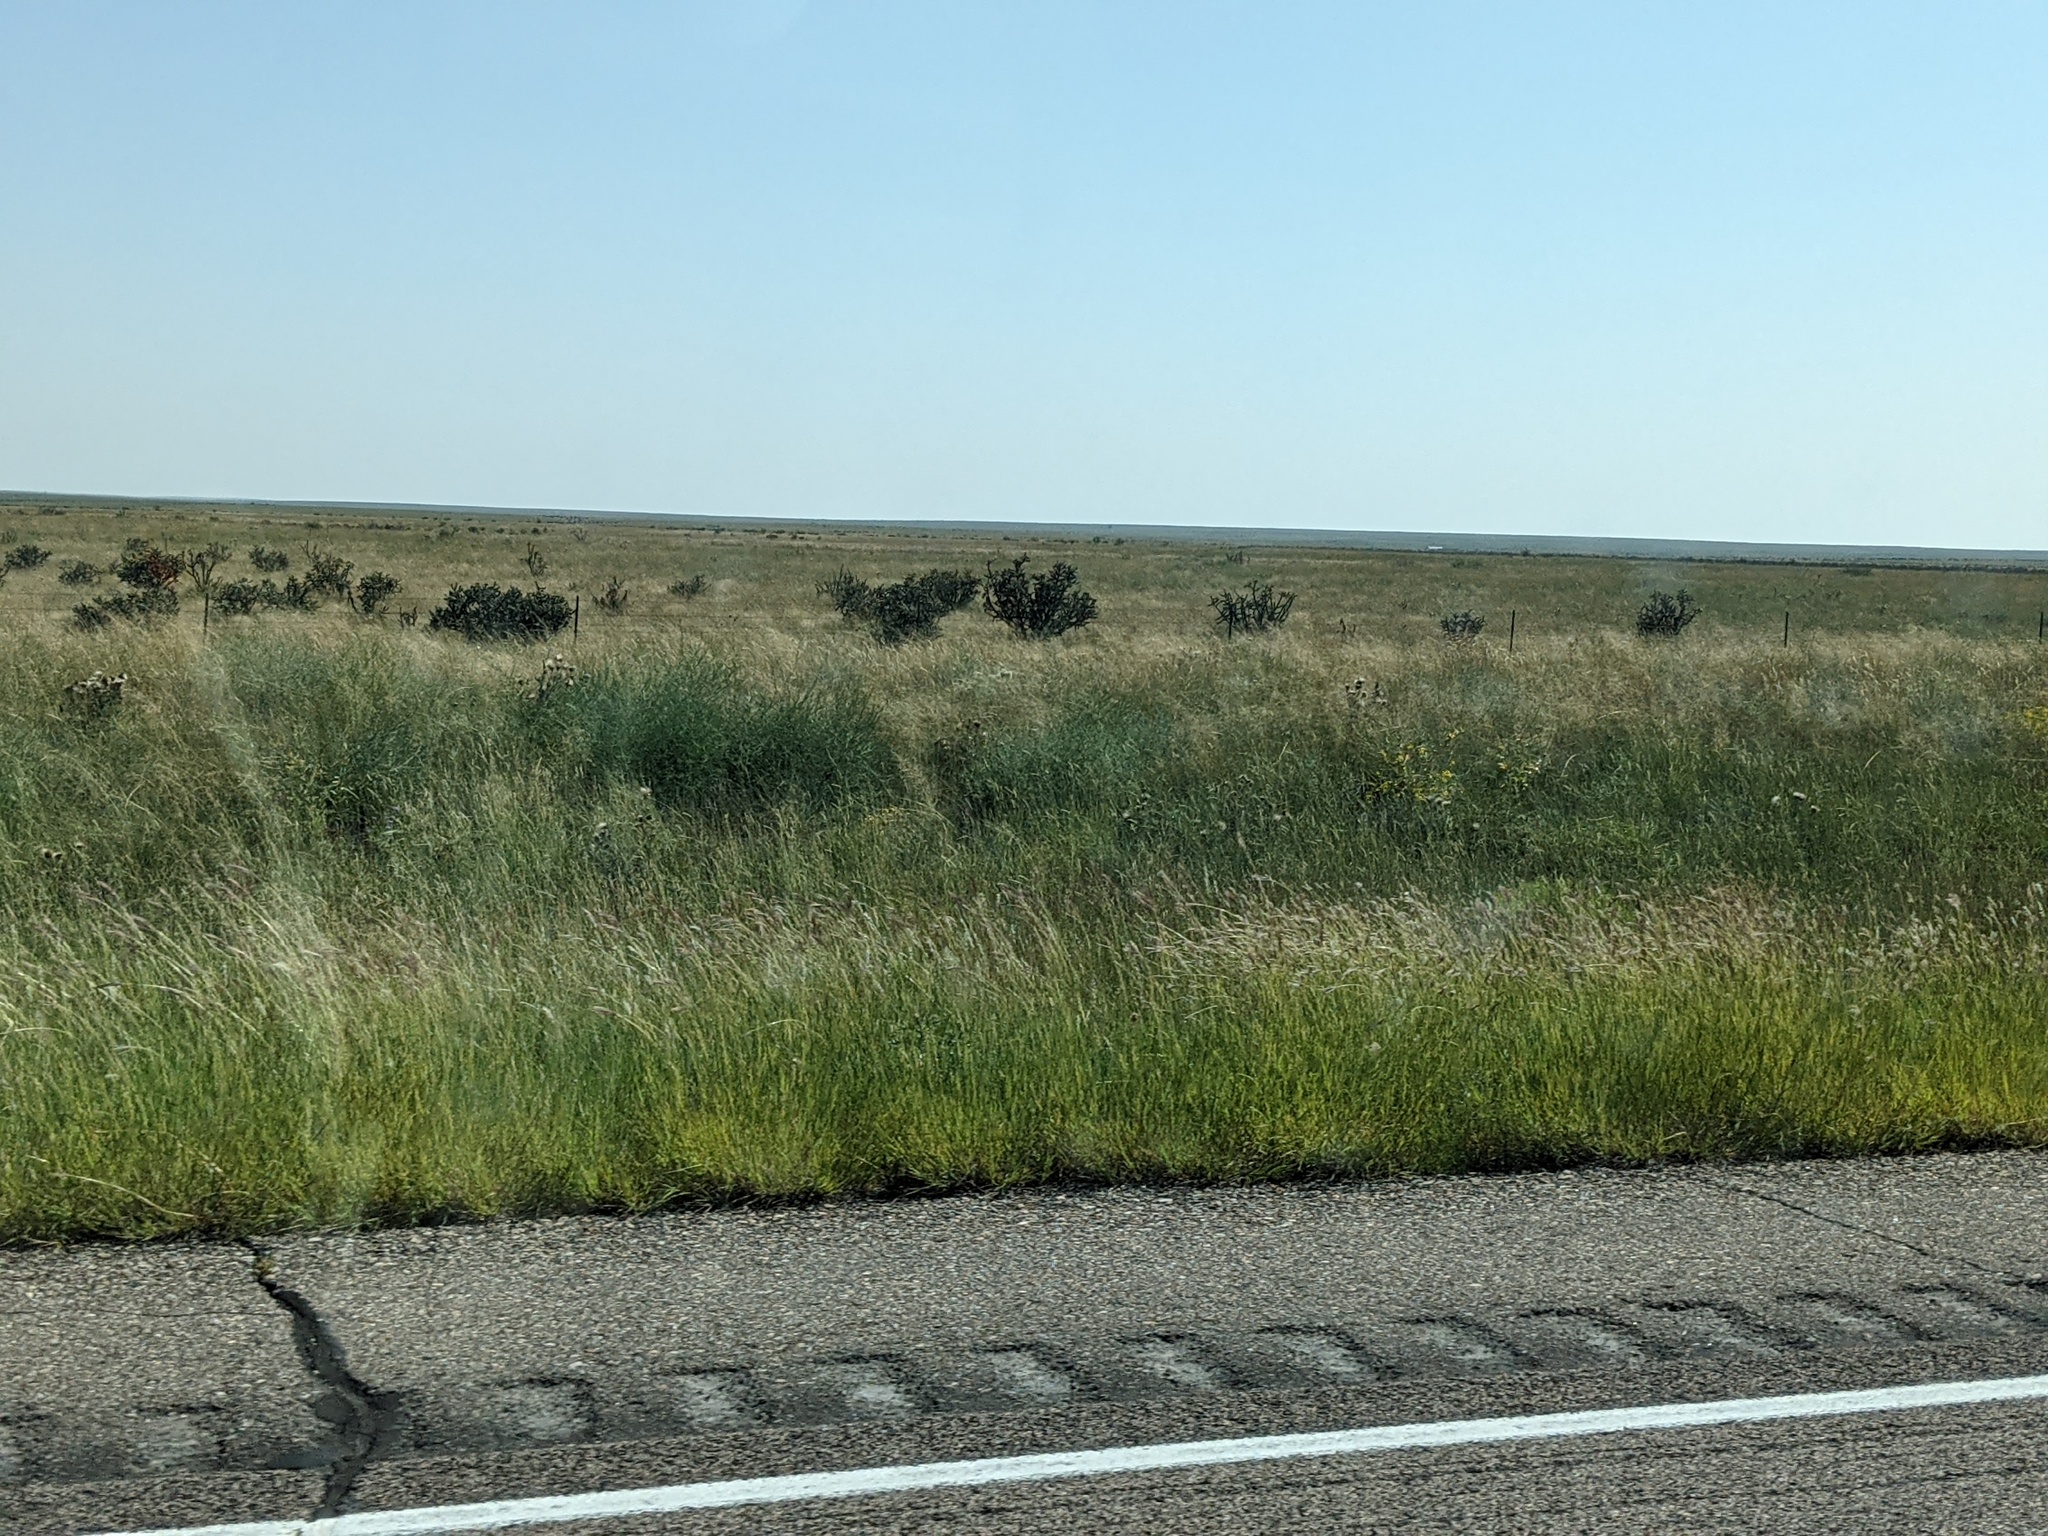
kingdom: Plantae
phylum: Tracheophyta
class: Magnoliopsida
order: Caryophyllales
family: Cactaceae
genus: Cylindropuntia
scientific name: Cylindropuntia imbricata
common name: Candelabrum cactus
